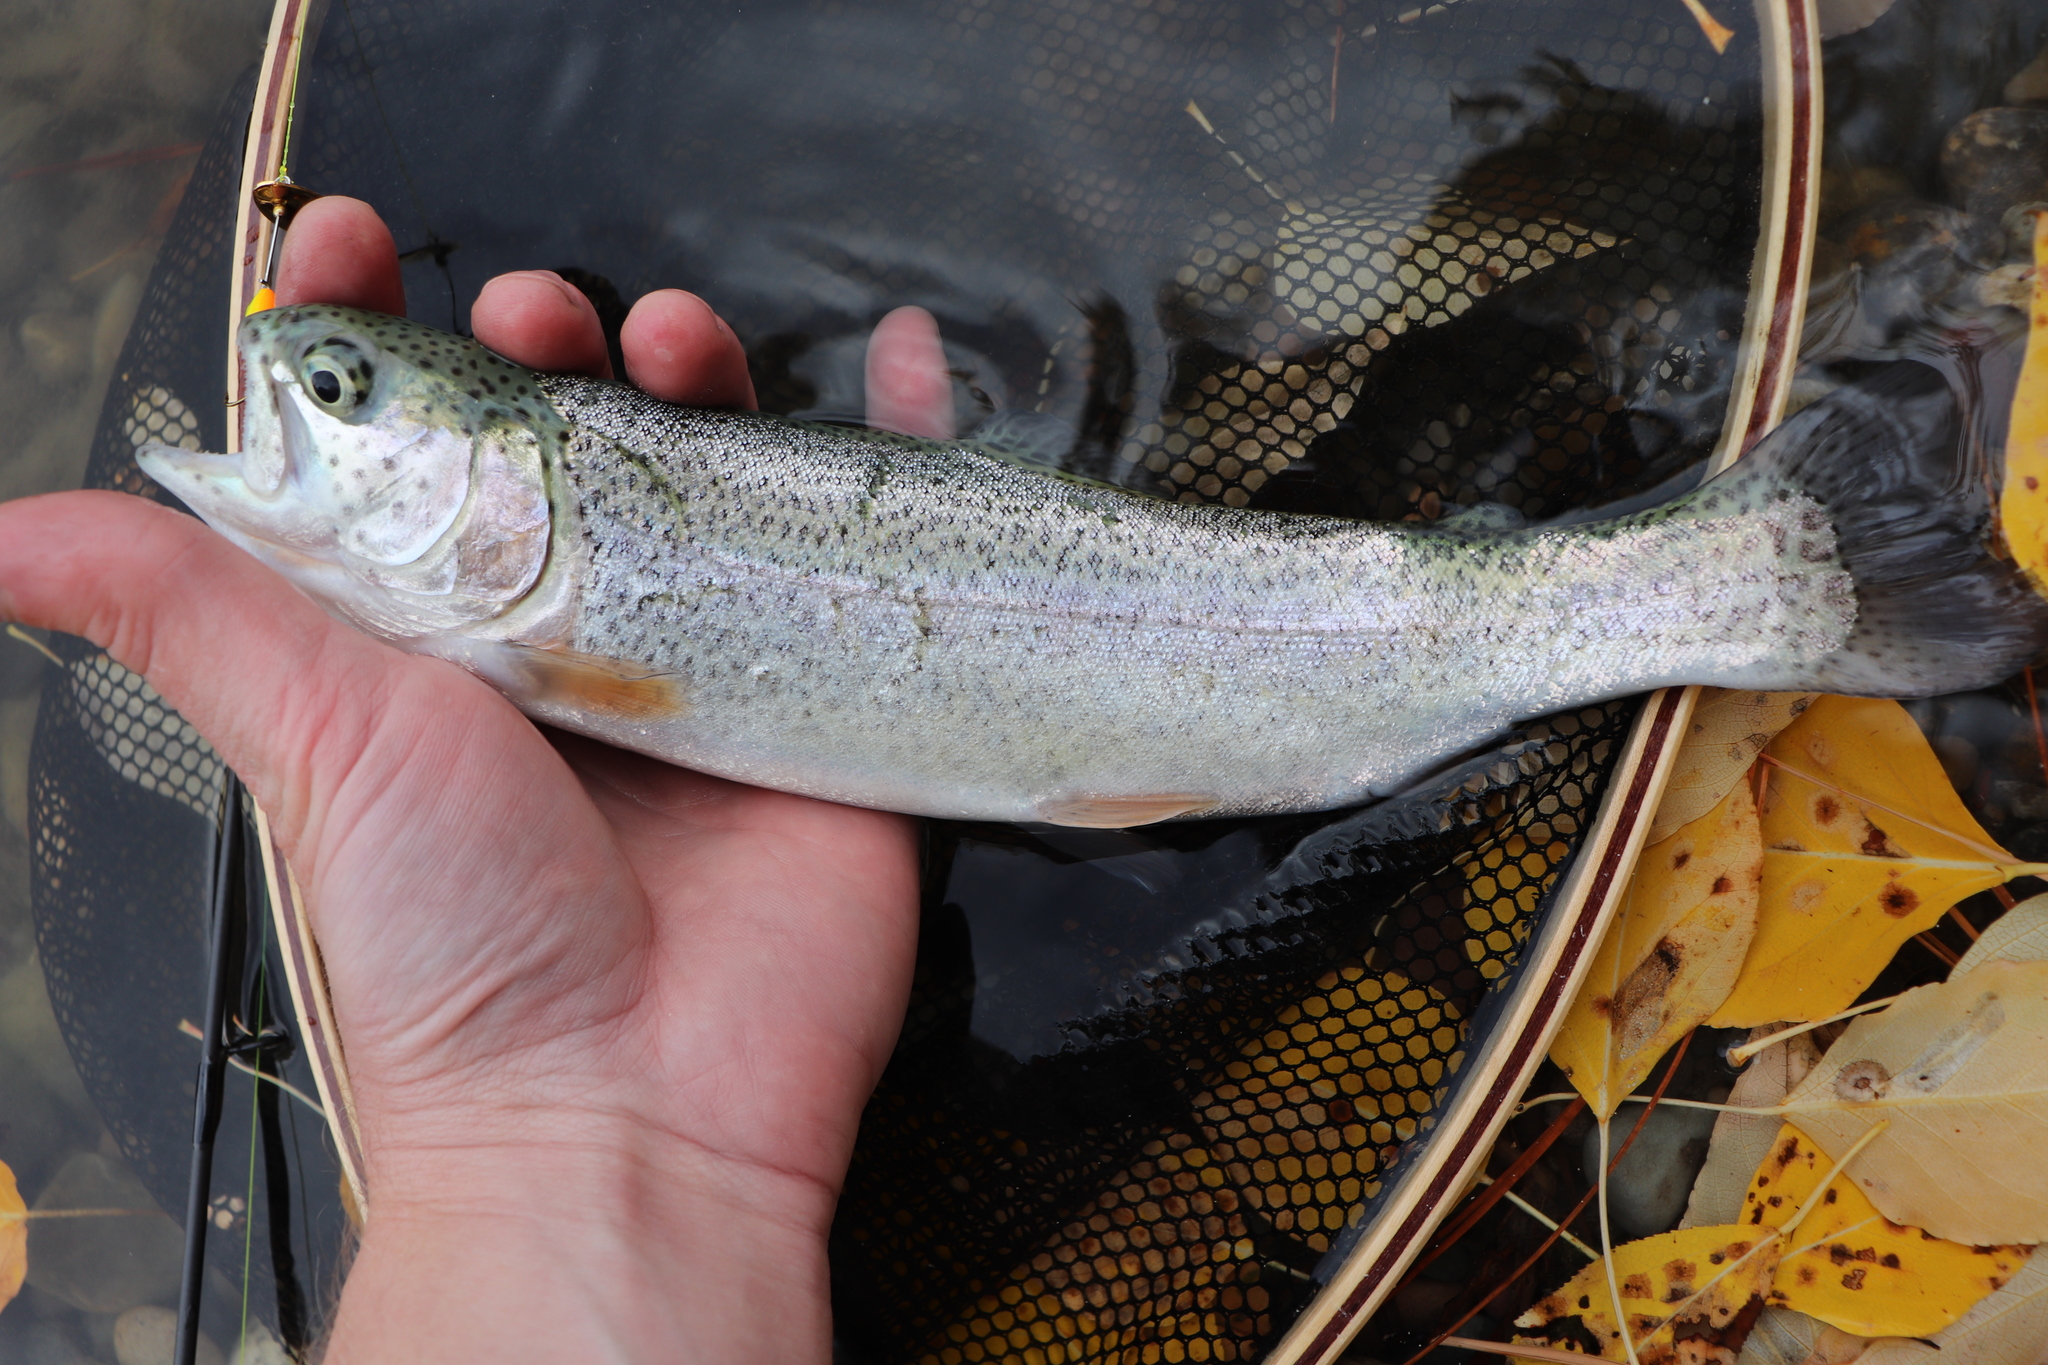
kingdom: Animalia
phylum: Chordata
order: Salmoniformes
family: Salmonidae
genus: Oncorhynchus
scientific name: Oncorhynchus mykiss
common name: Rainbow trout
